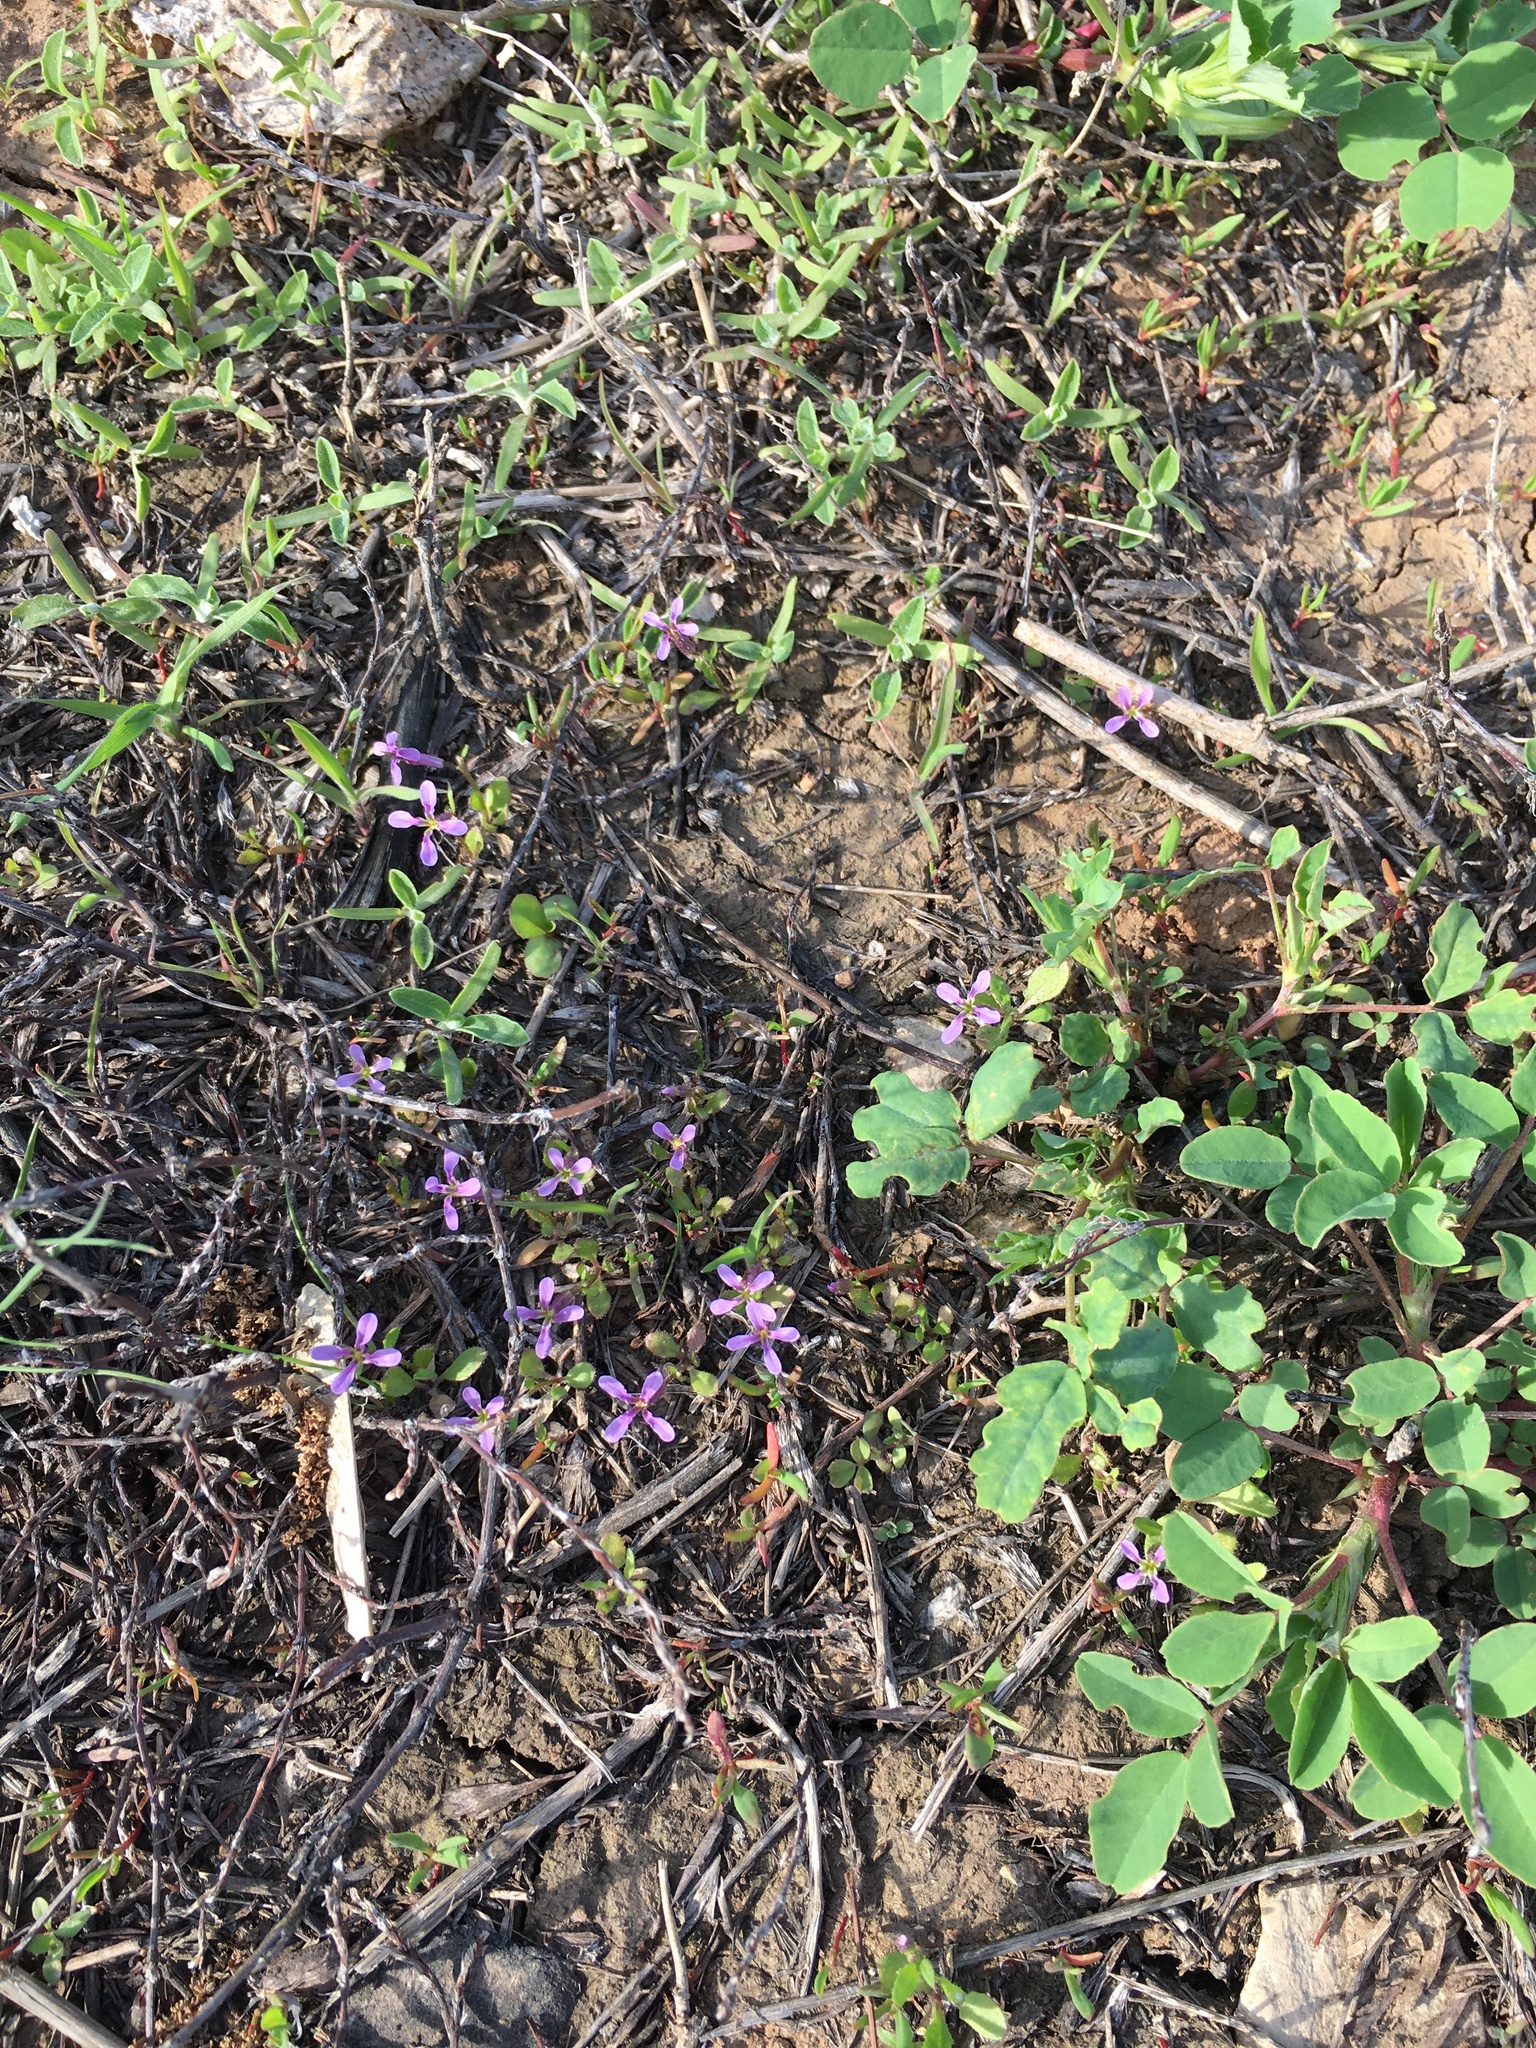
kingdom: Plantae
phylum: Tracheophyta
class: Magnoliopsida
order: Brassicales
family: Brassicaceae
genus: Chorispora
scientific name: Chorispora tenella
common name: Crossflower
